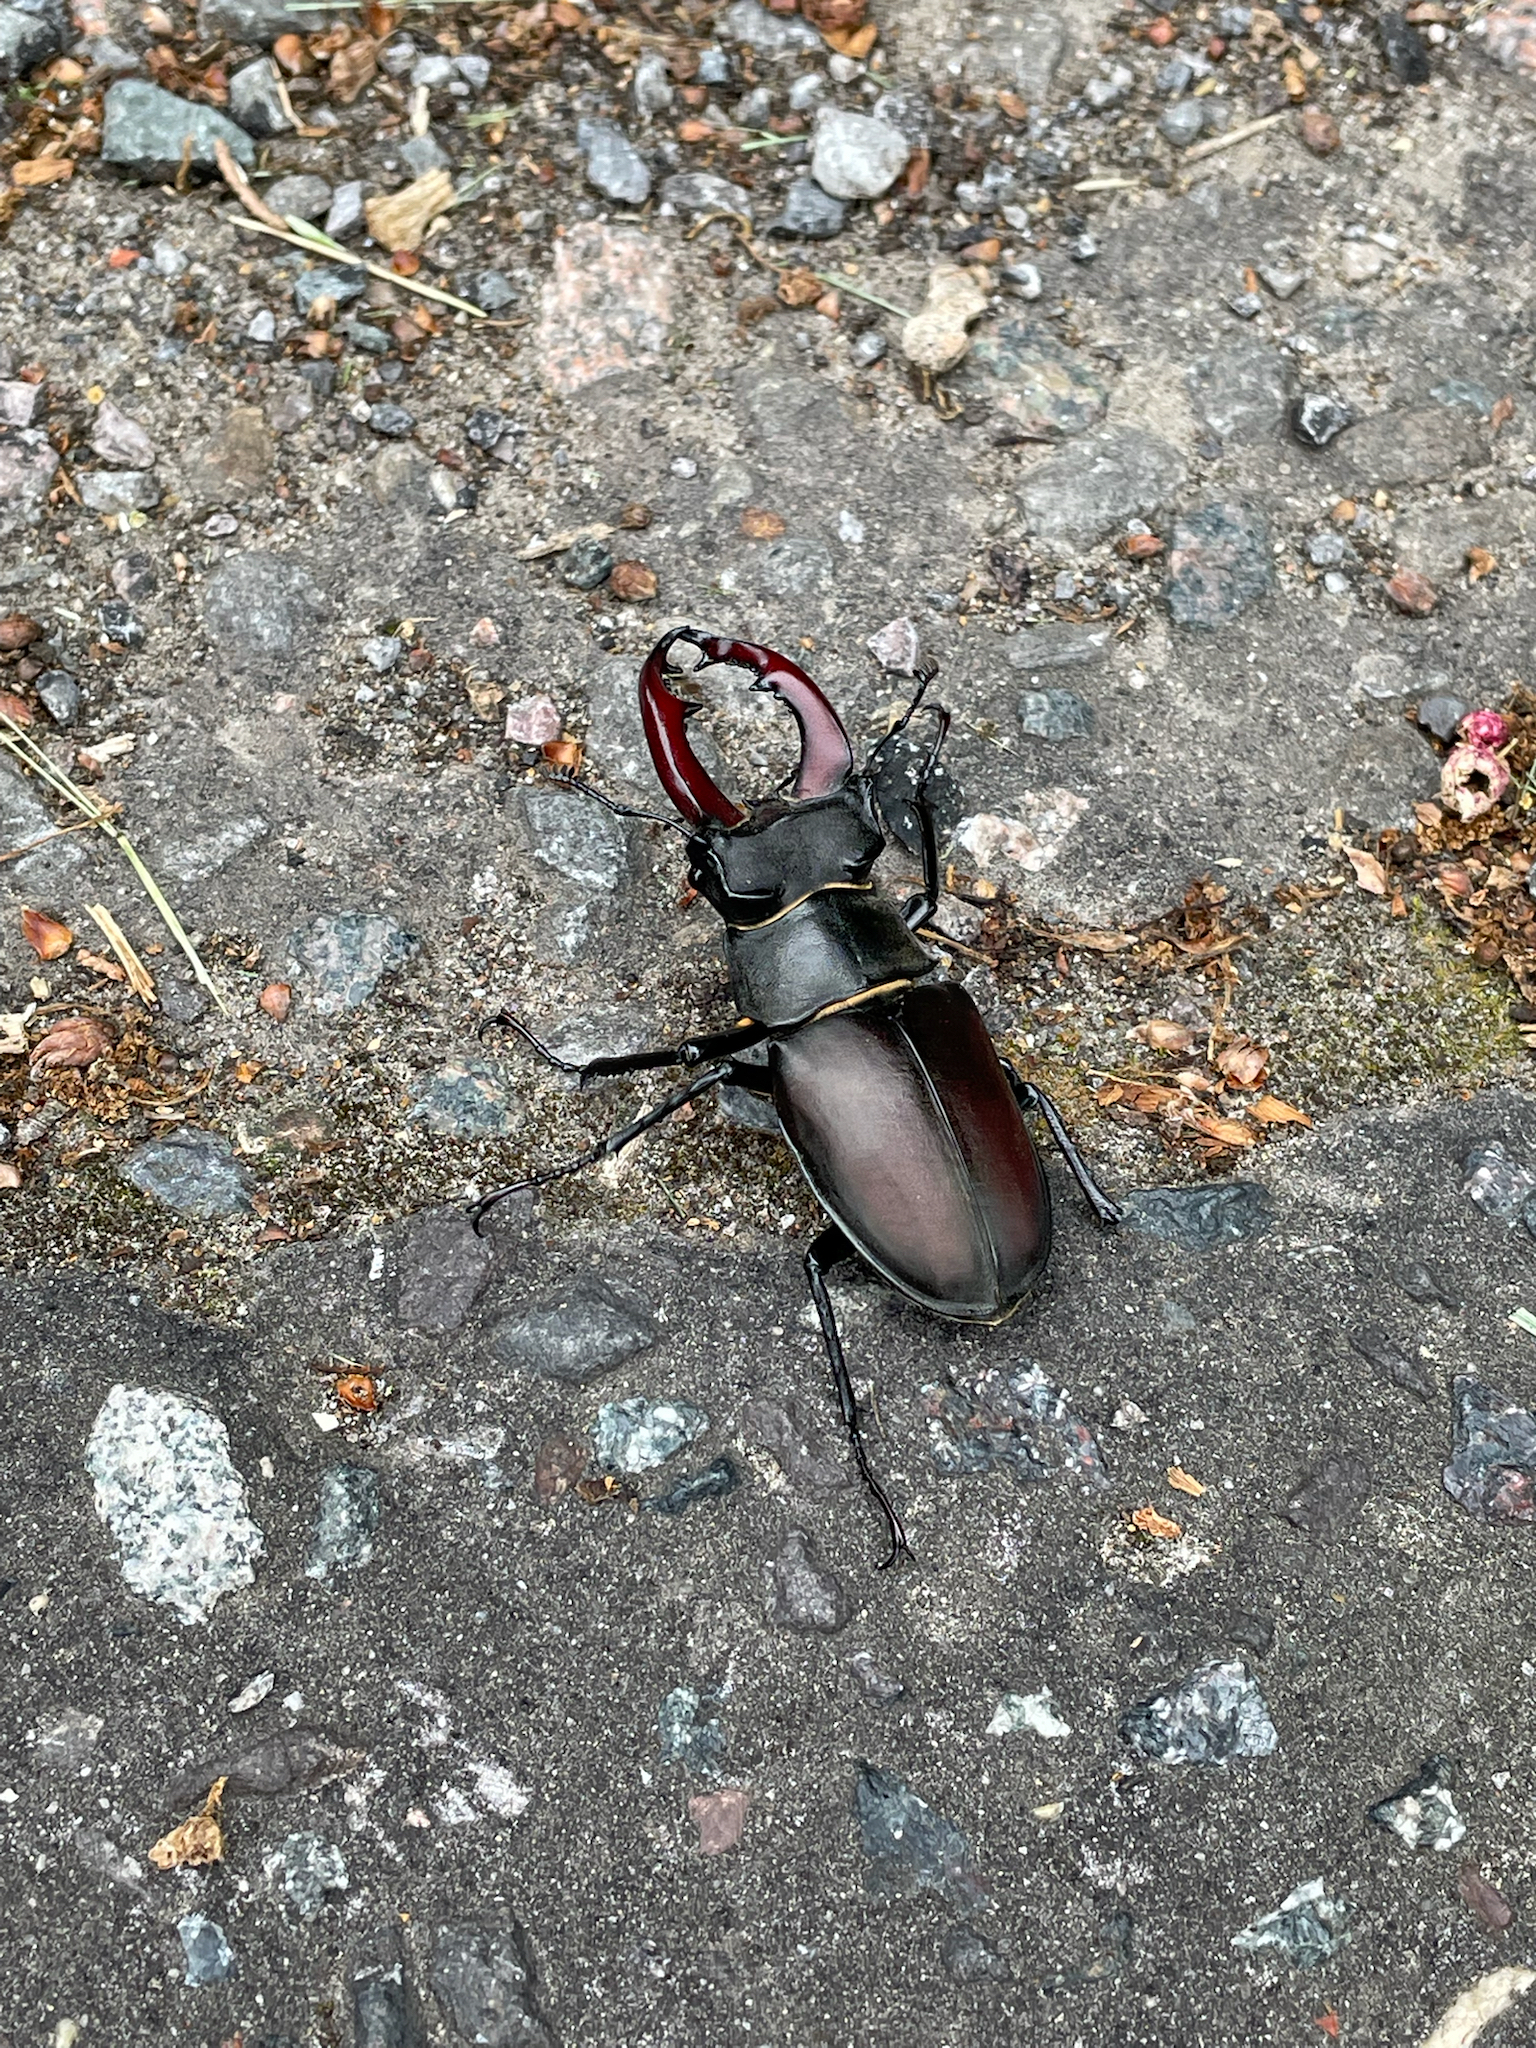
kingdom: Animalia
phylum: Arthropoda
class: Insecta
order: Coleoptera
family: Lucanidae
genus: Lucanus
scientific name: Lucanus cervus
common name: Stag beetle
